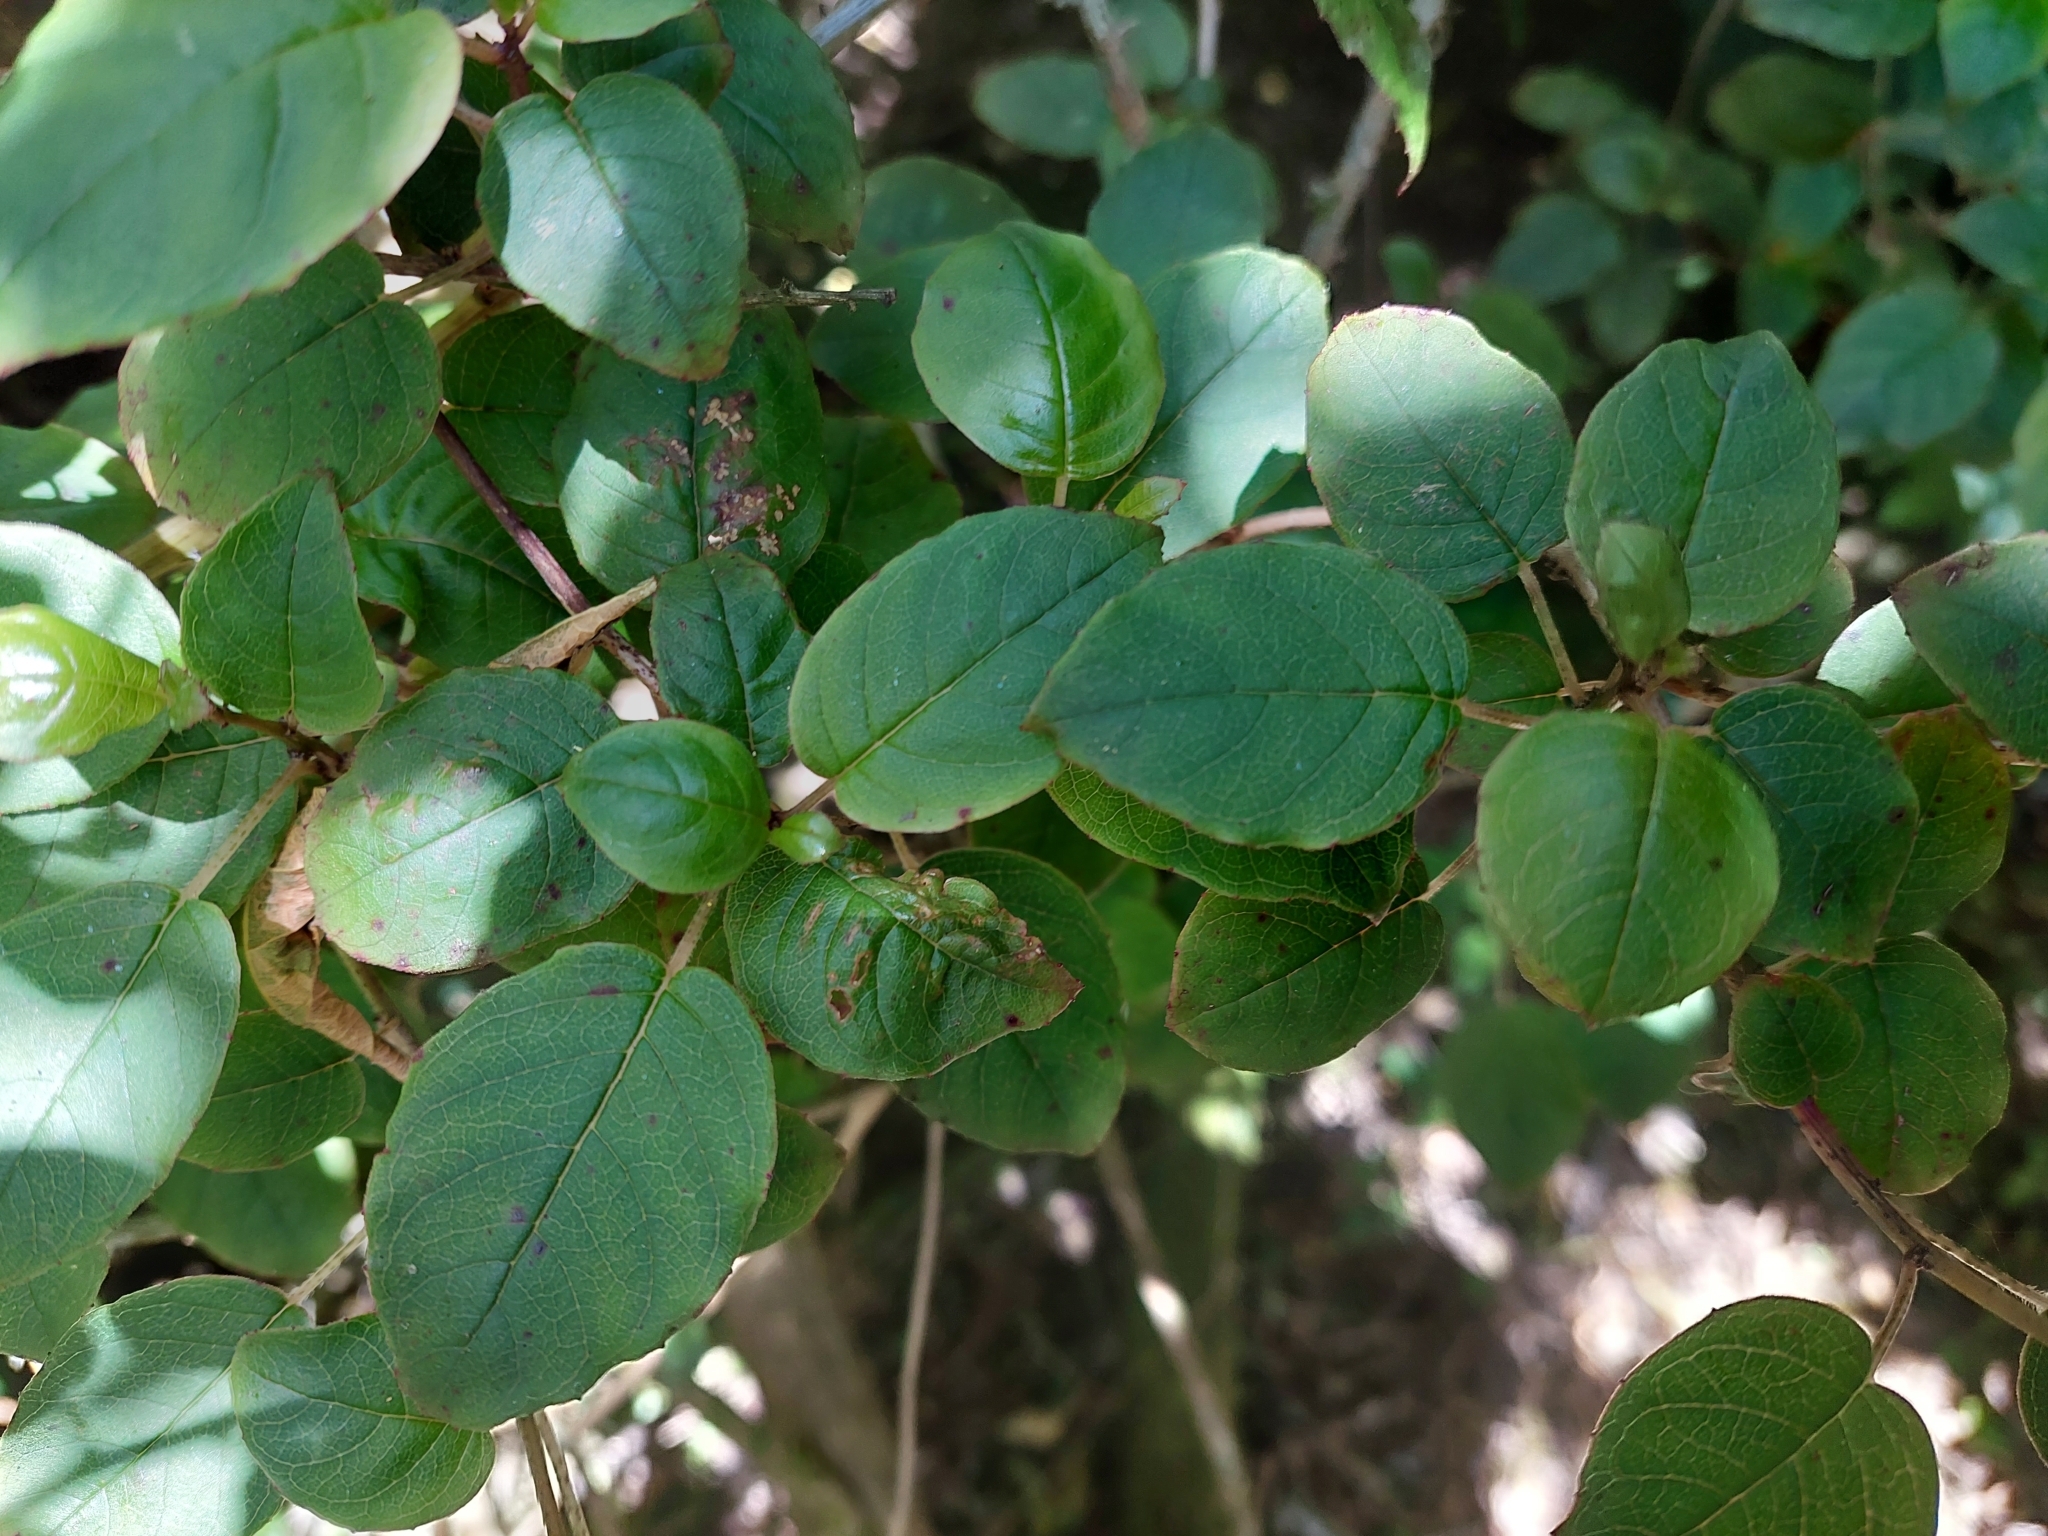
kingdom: Plantae
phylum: Tracheophyta
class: Magnoliopsida
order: Myrtales
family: Onagraceae
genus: Fuchsia
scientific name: Fuchsia colensoi
